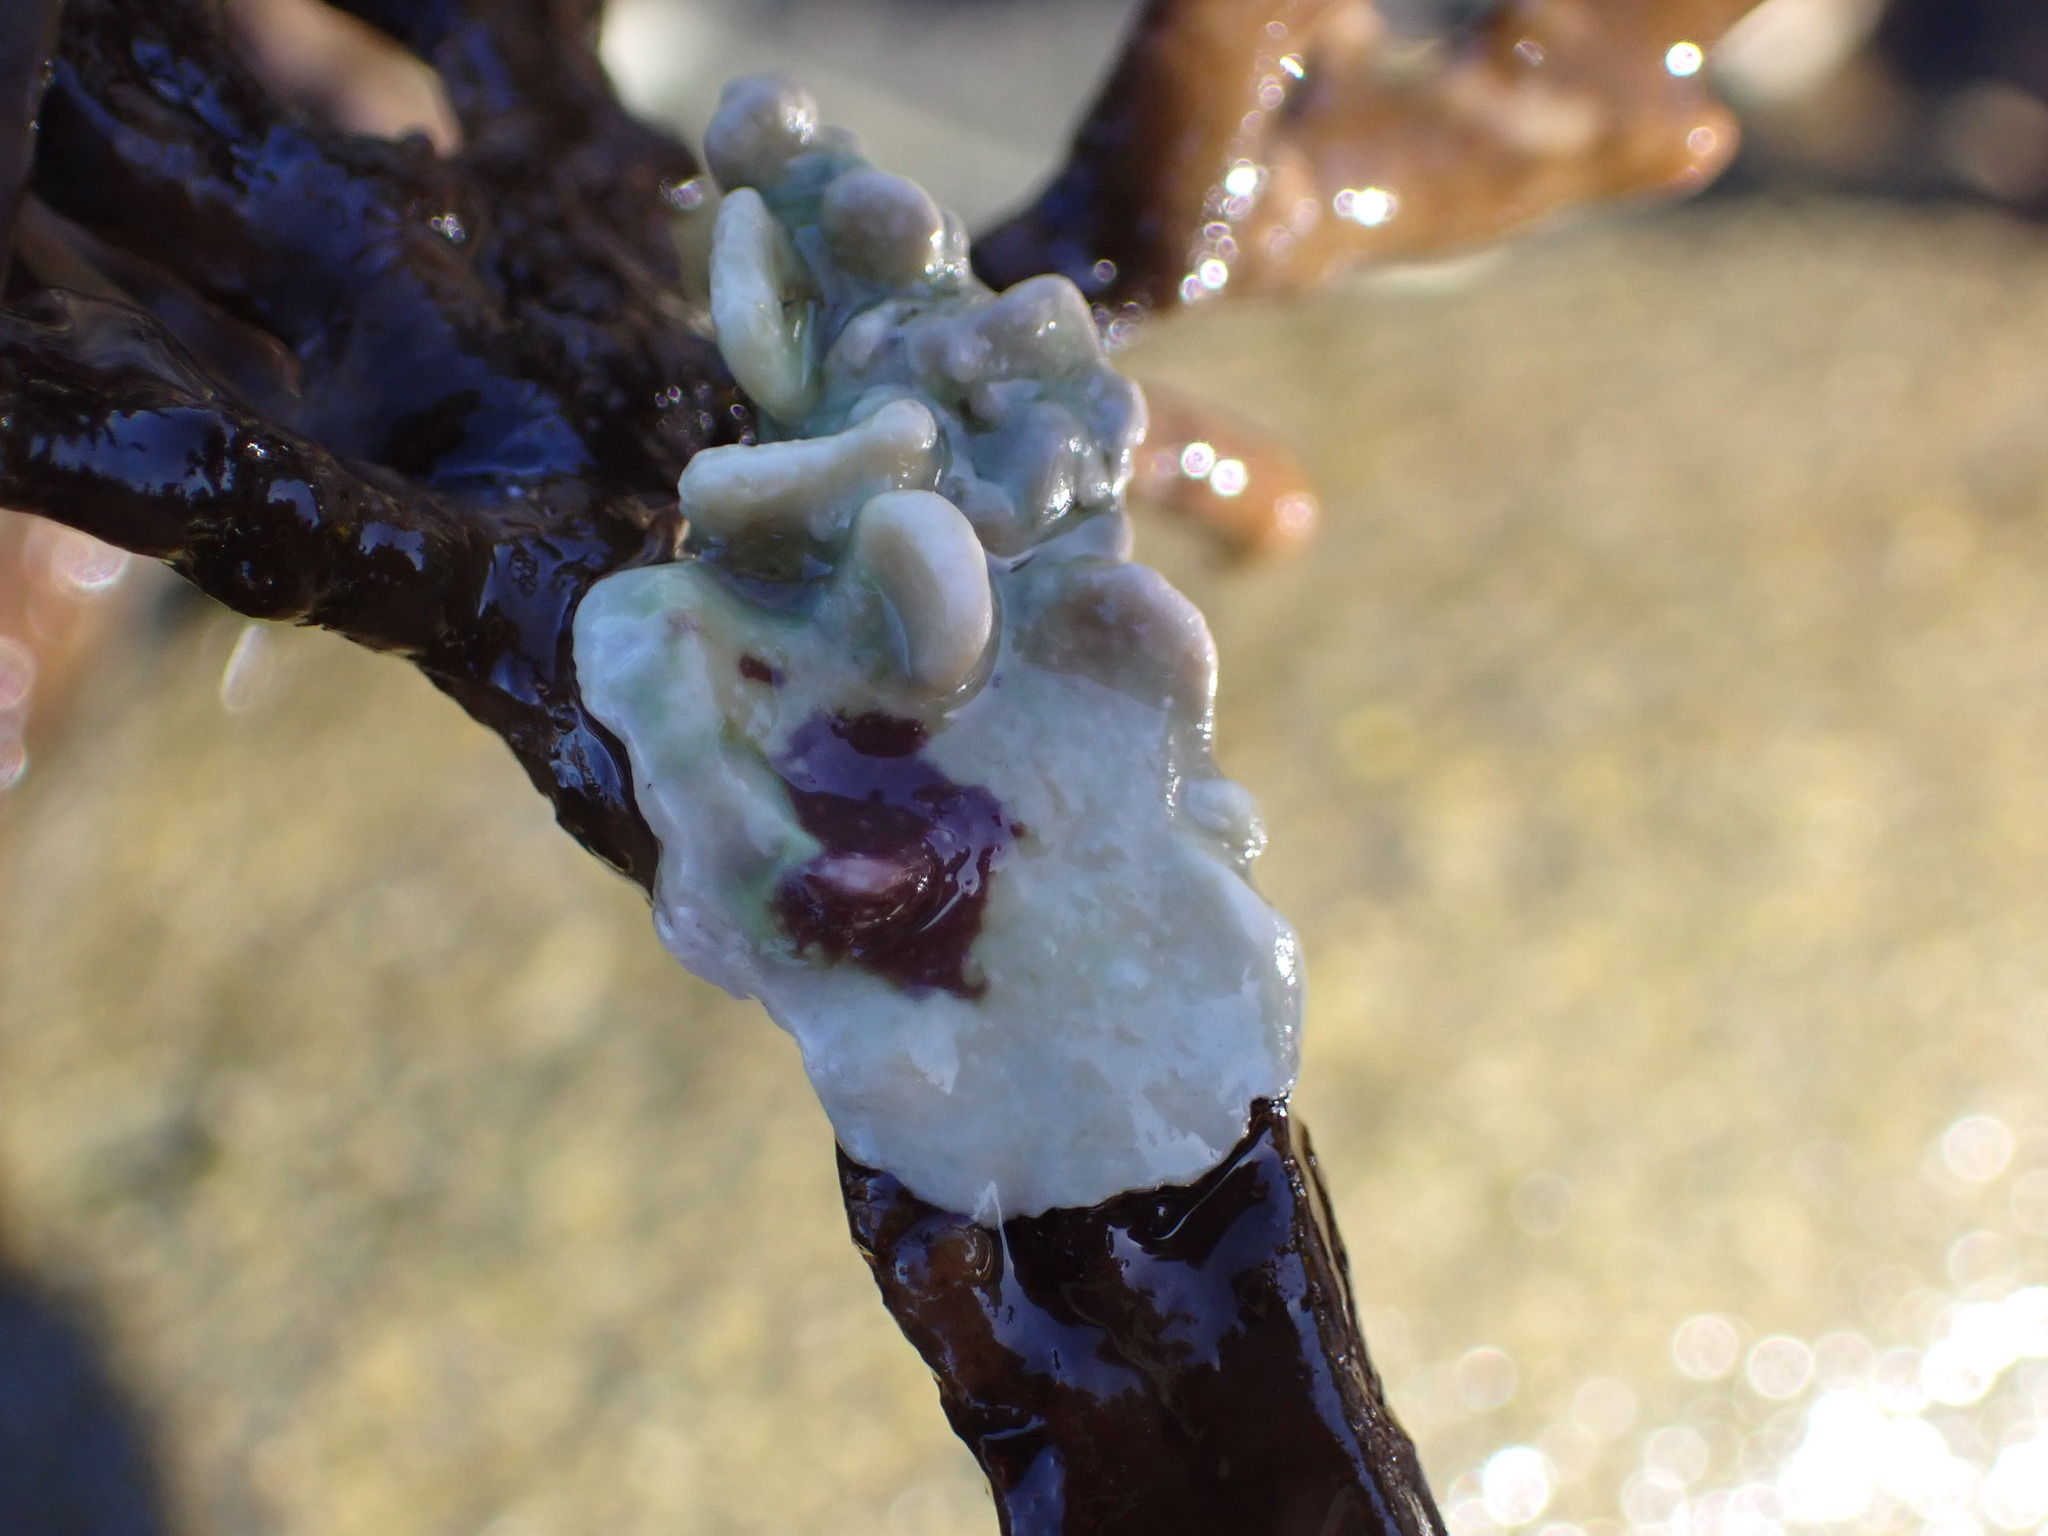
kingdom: Plantae
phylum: Rhodophyta
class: Florideophyceae
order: Corallinales
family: Lithophyllaceae
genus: Lithophyllum
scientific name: Lithophyllum carpophylli
